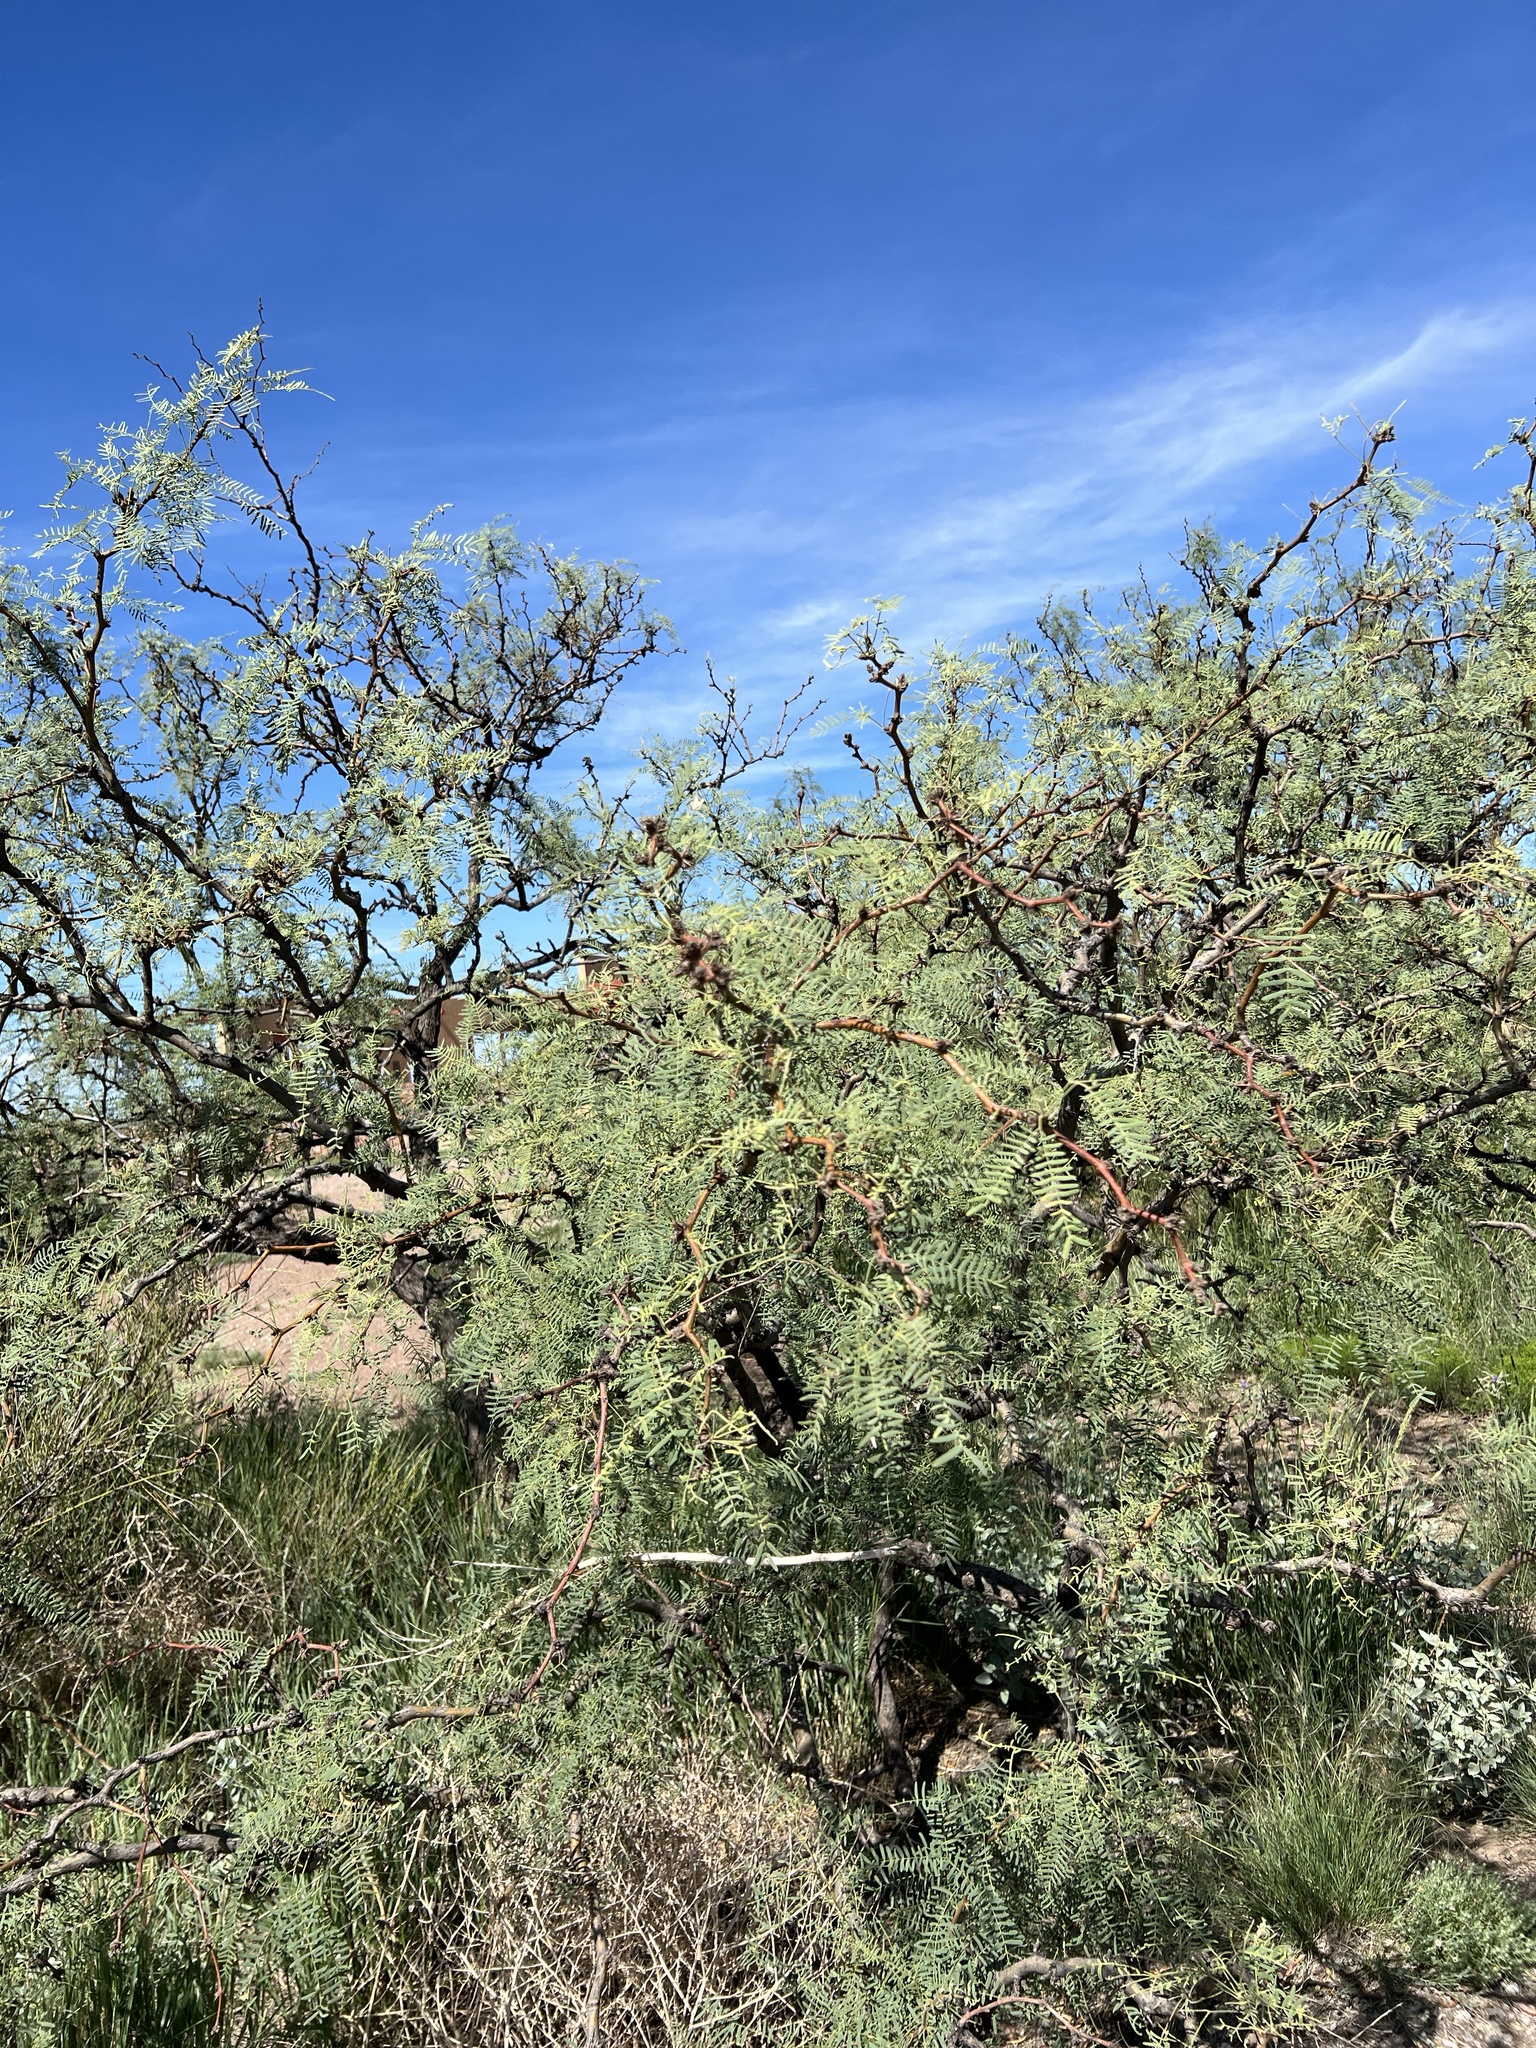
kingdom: Plantae
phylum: Tracheophyta
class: Magnoliopsida
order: Fabales
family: Fabaceae
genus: Prosopis
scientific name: Prosopis glandulosa
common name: Honey mesquite
